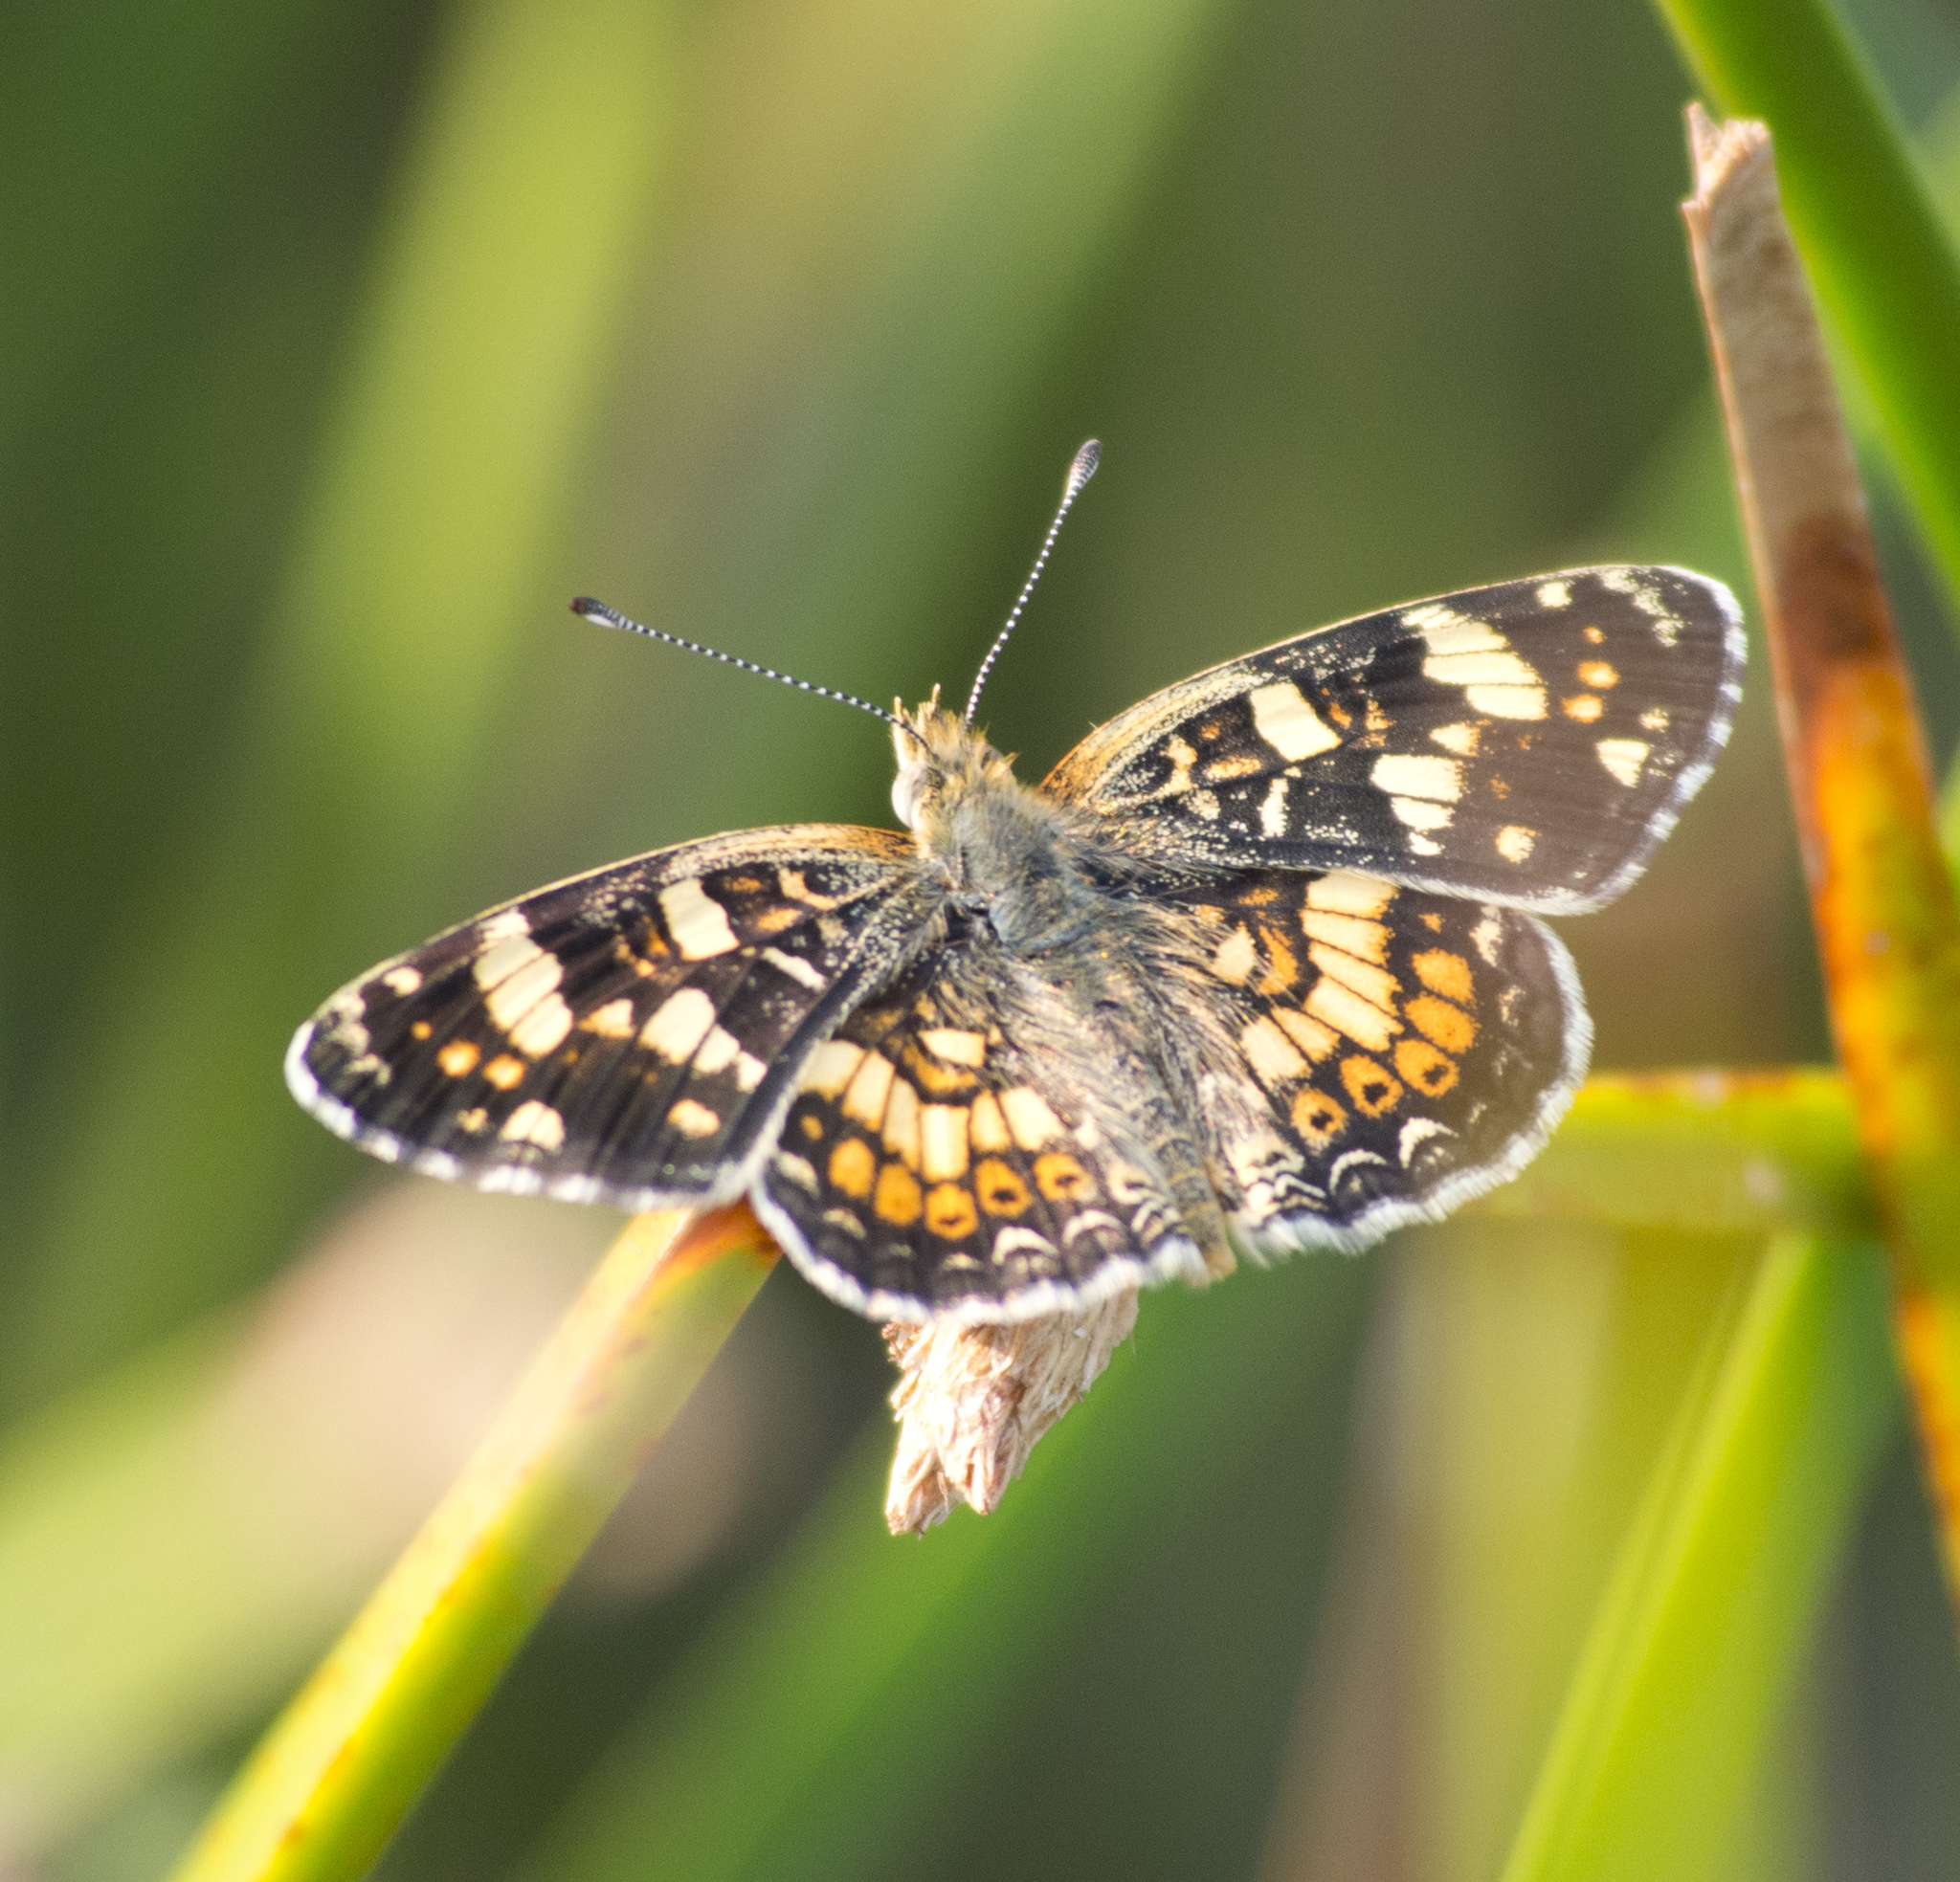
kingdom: Animalia
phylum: Arthropoda
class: Insecta
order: Lepidoptera
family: Nymphalidae
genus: Phyciodes
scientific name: Phyciodes tharos
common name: Pearl crescent
